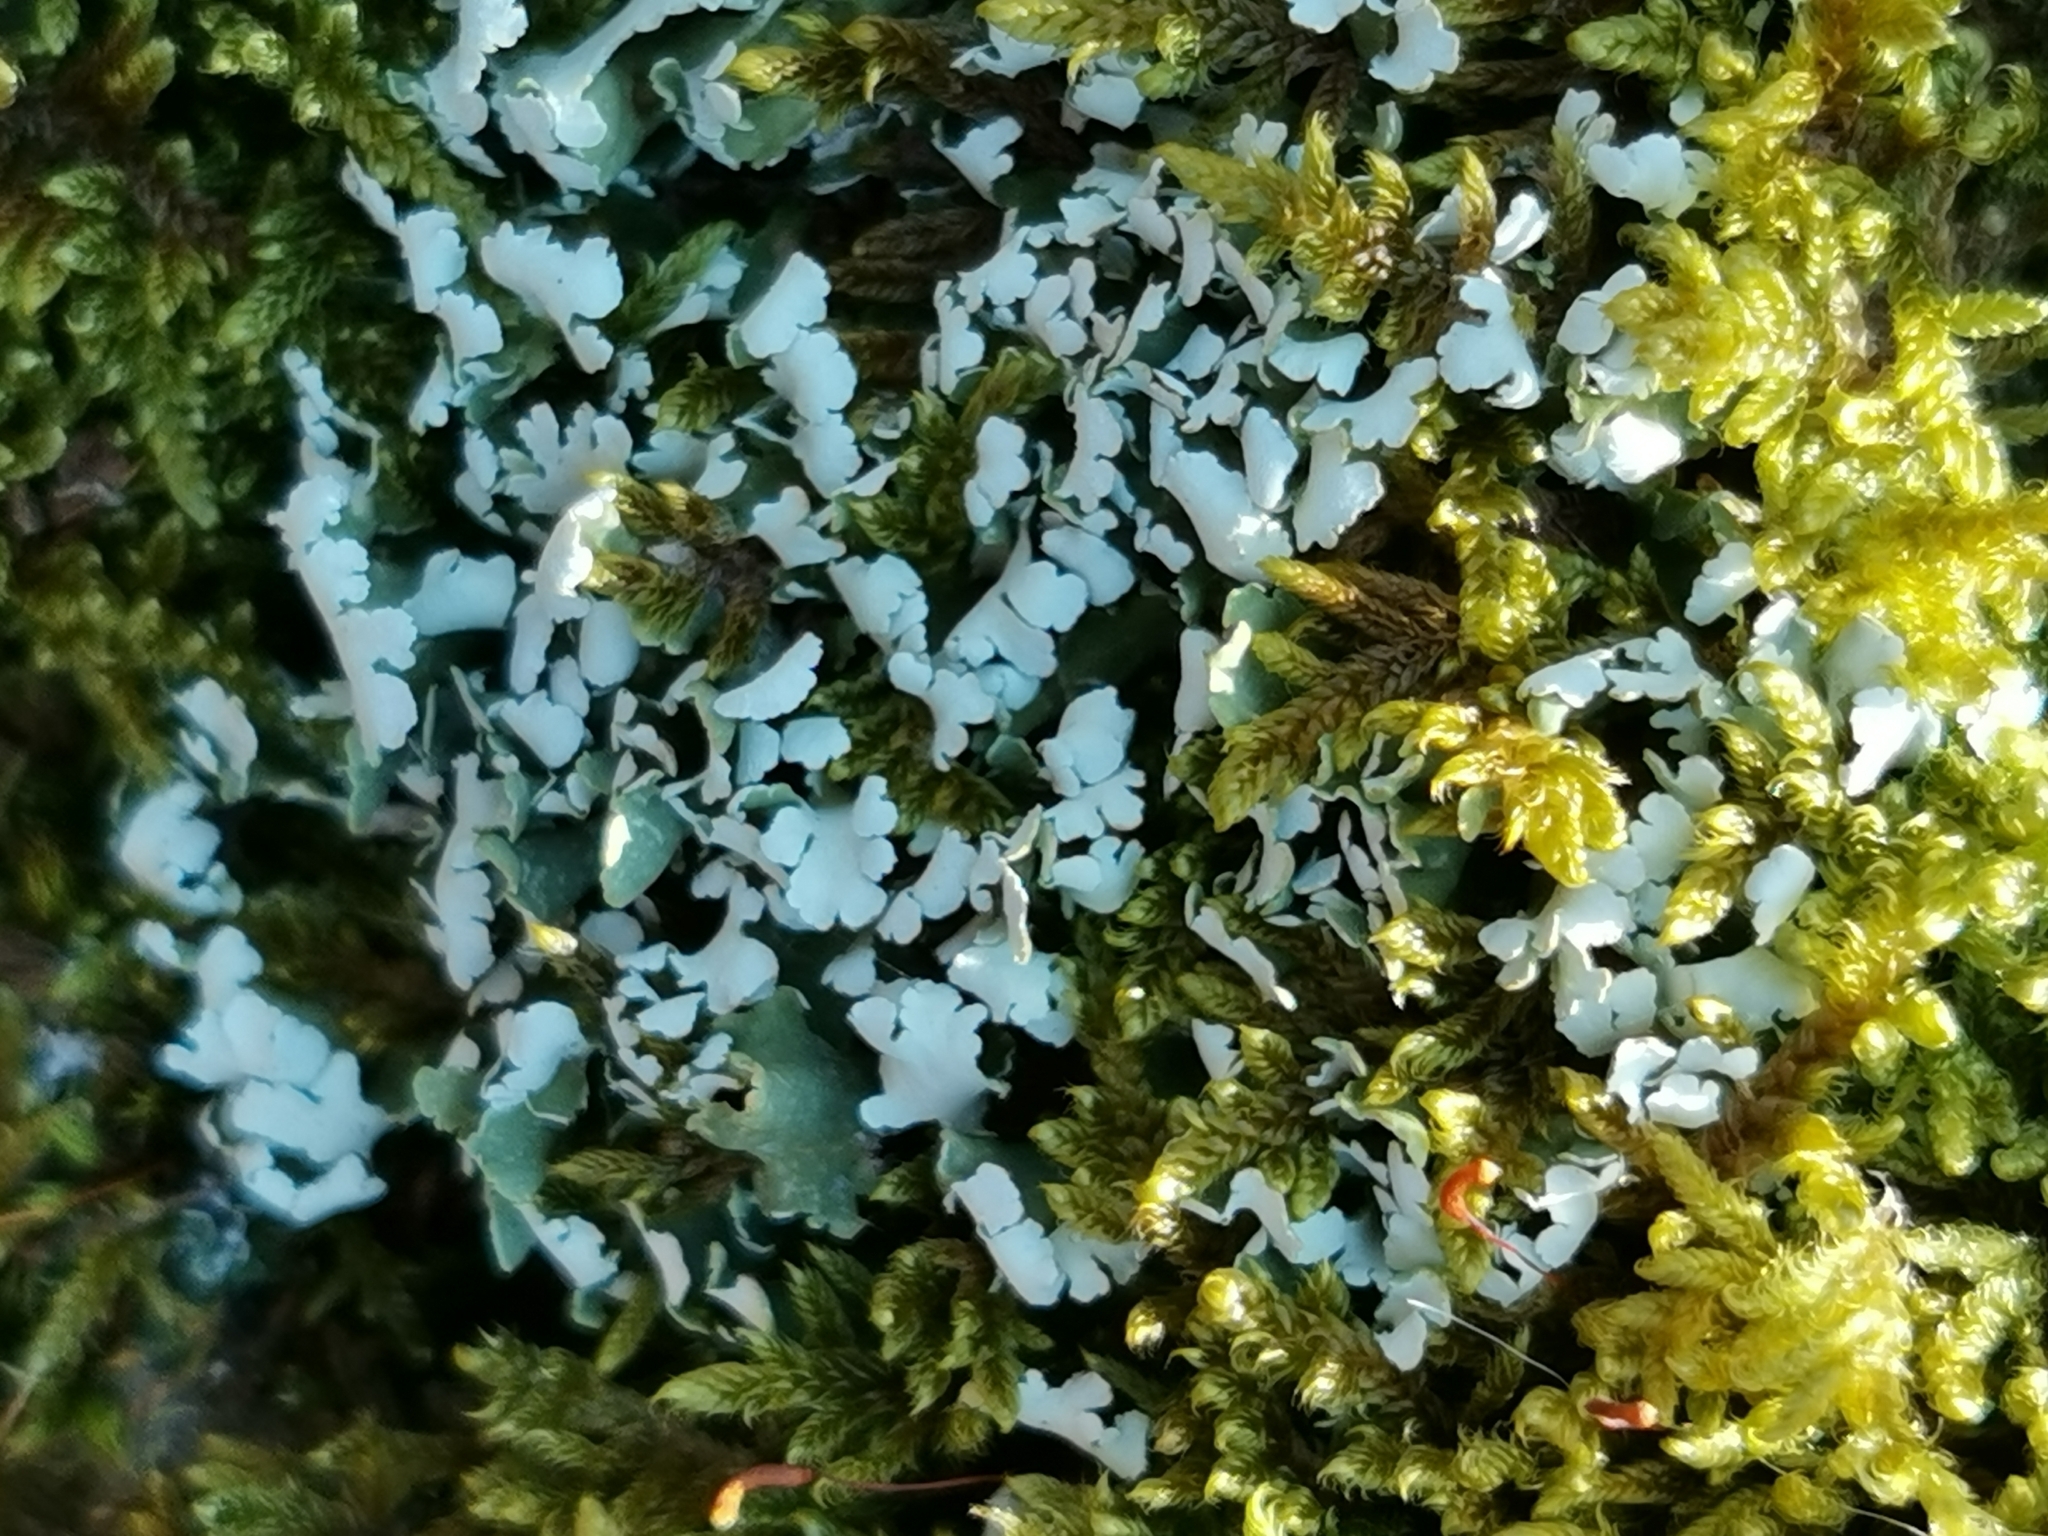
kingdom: Fungi
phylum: Ascomycota
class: Lecanoromycetes
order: Lecanorales
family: Cladoniaceae
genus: Cladonia
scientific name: Cladonia foliacea
